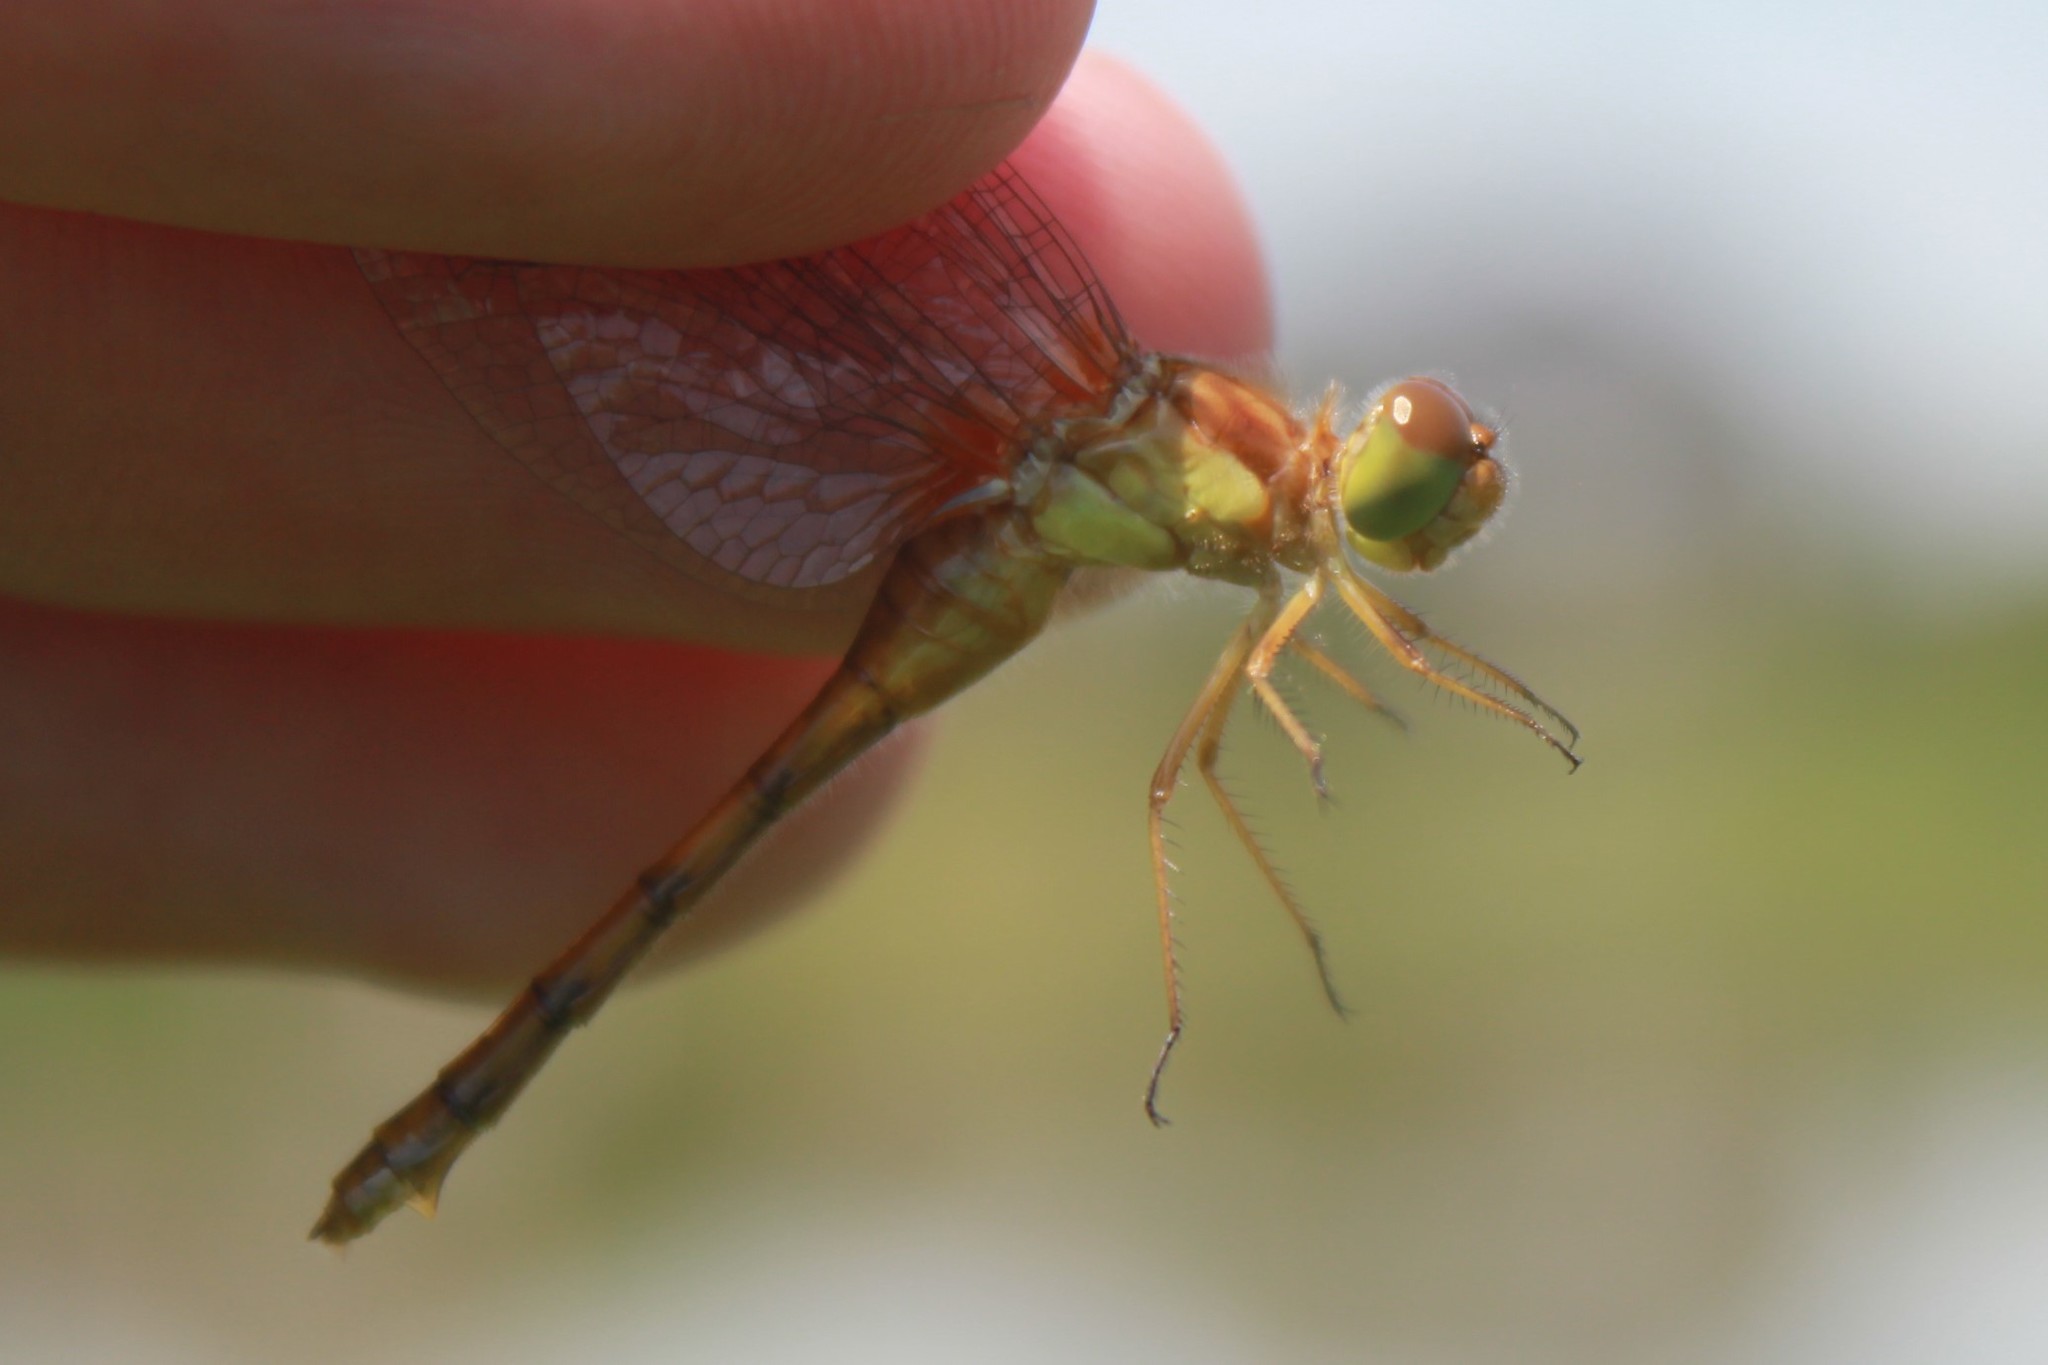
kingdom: Animalia
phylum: Arthropoda
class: Insecta
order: Odonata
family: Libellulidae
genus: Sympetrum
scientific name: Sympetrum vicinum
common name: Autumn meadowhawk
